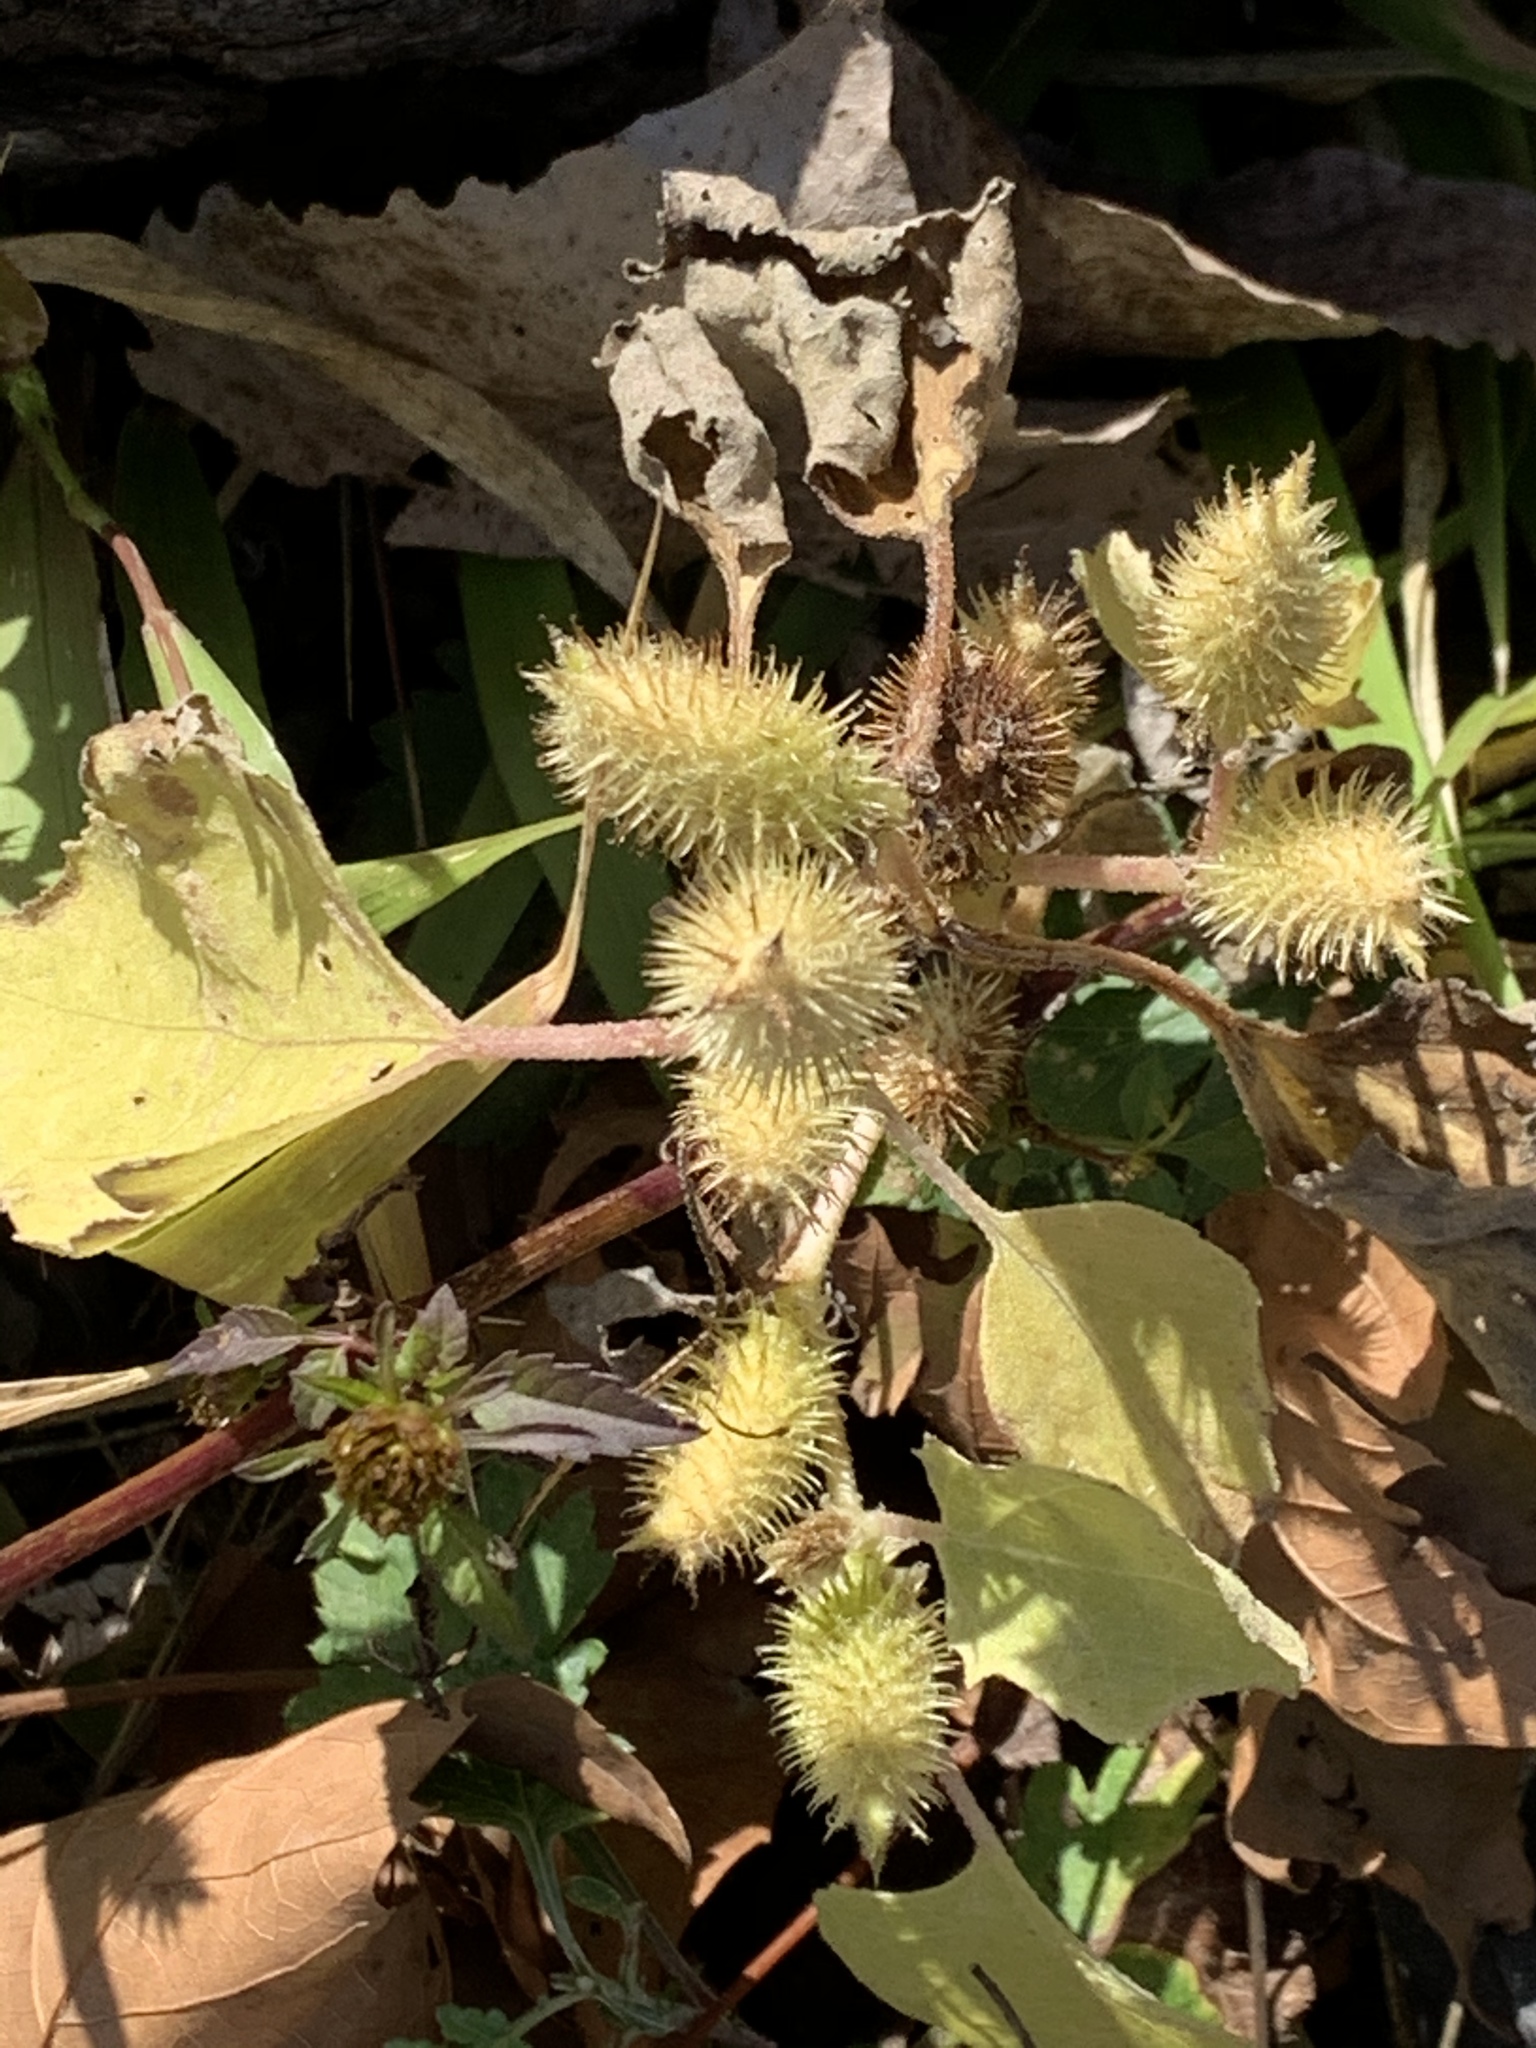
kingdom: Plantae
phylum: Tracheophyta
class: Magnoliopsida
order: Asterales
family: Asteraceae
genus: Xanthium
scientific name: Xanthium strumarium
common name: Rough cocklebur
